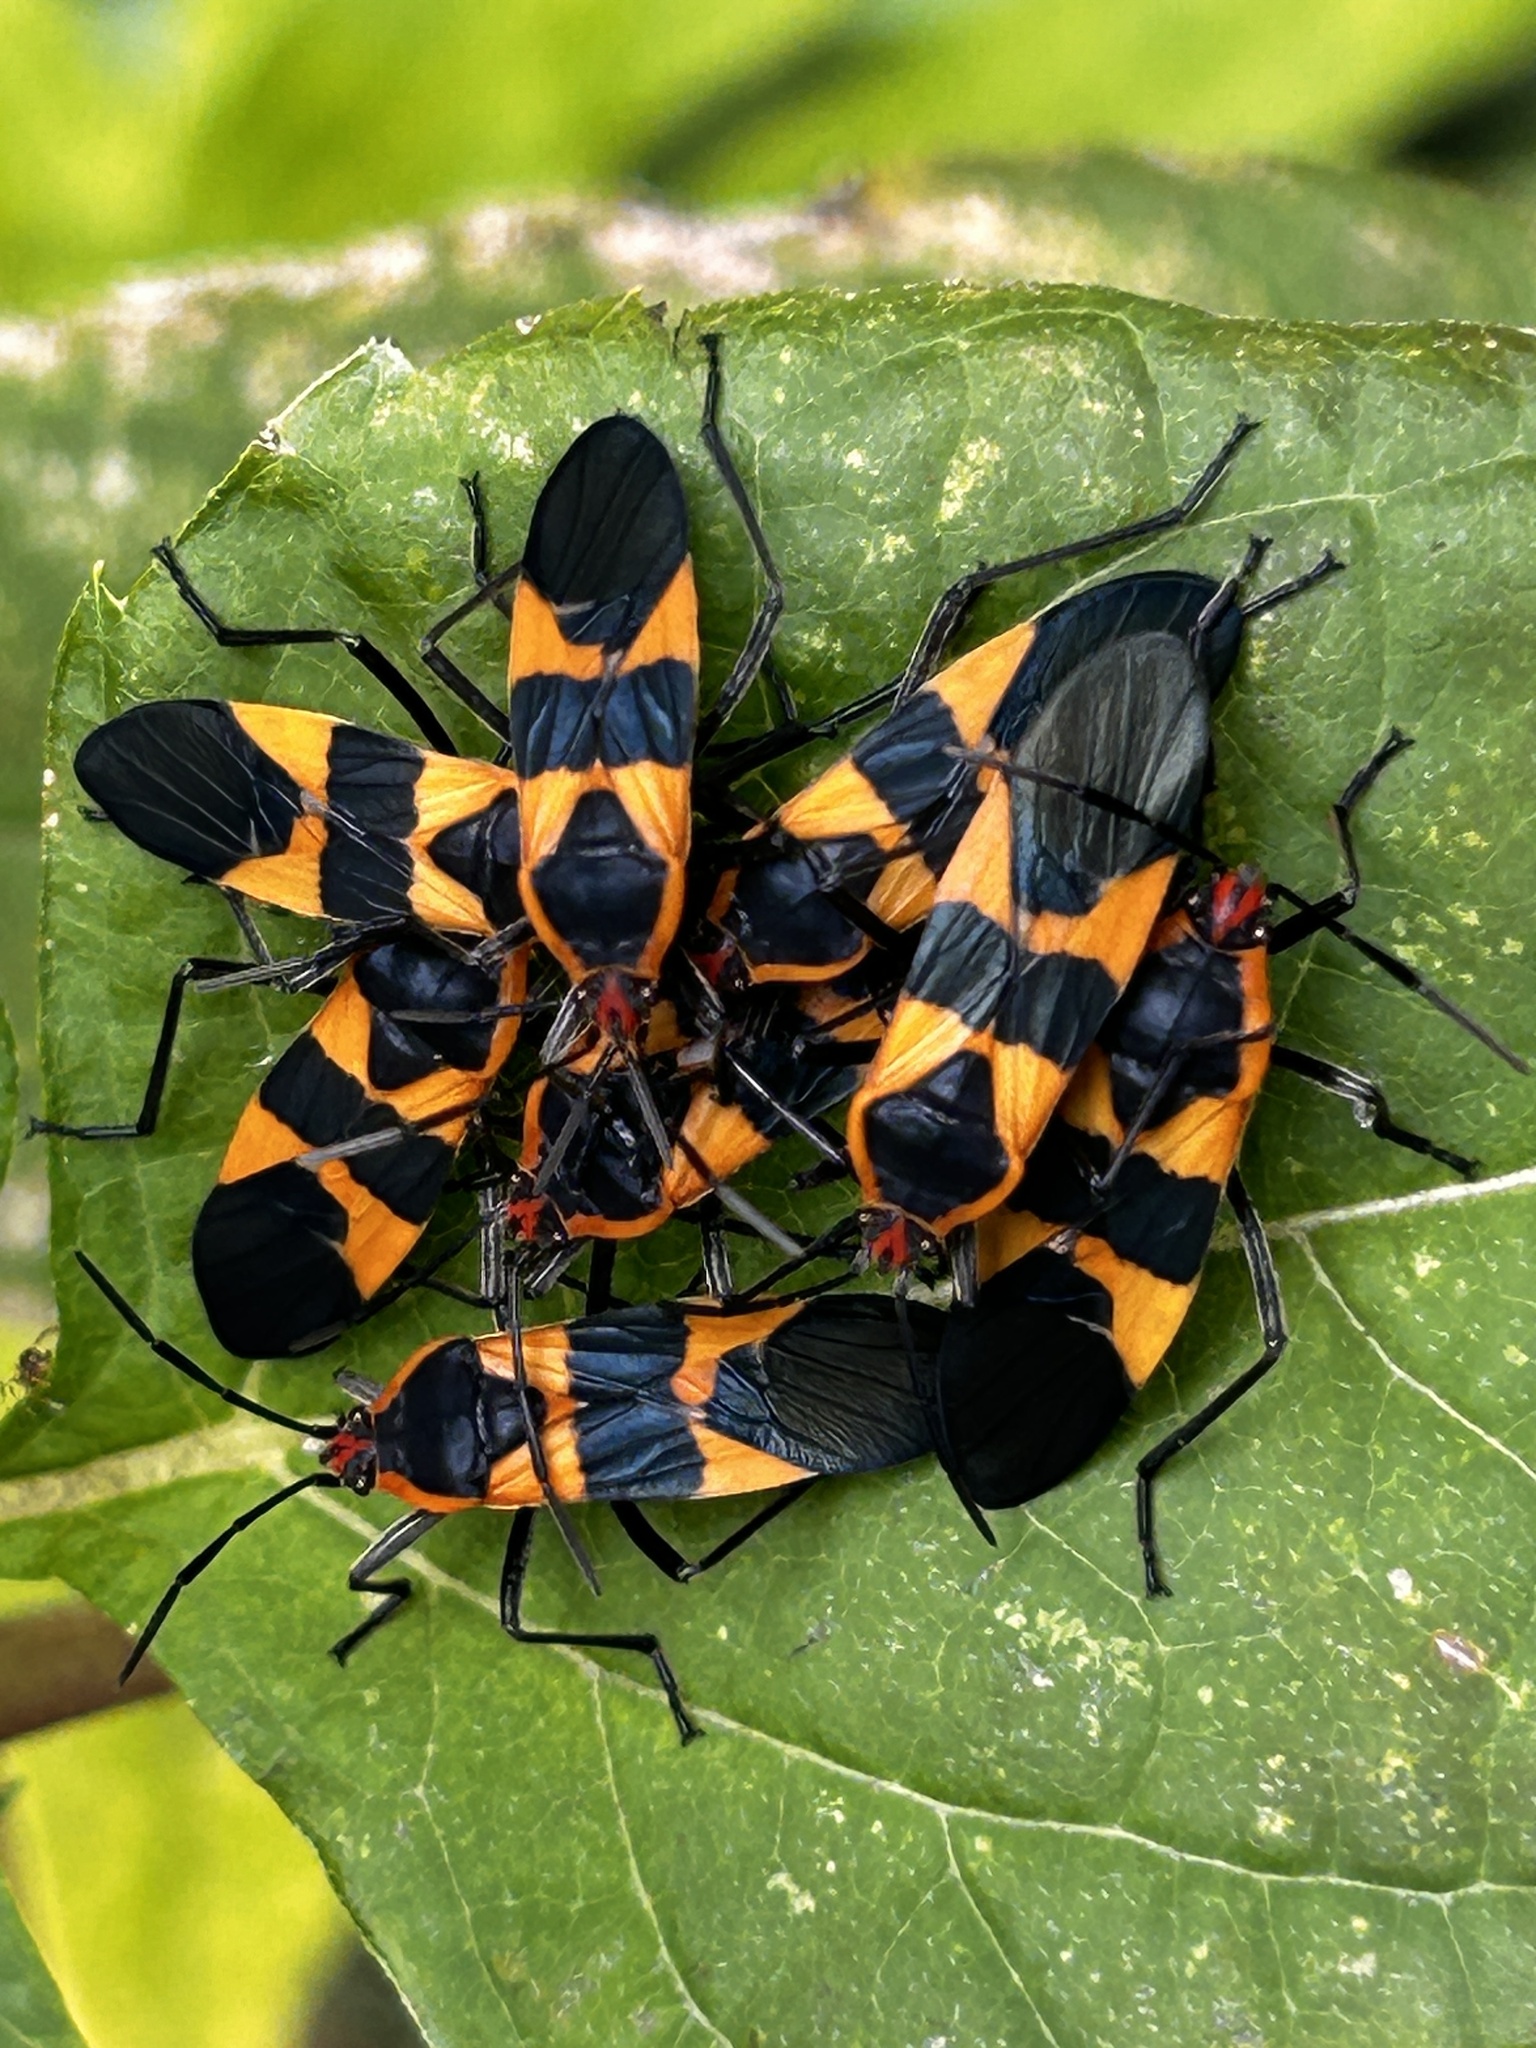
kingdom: Animalia
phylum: Arthropoda
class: Insecta
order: Hemiptera
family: Lygaeidae
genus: Oncopeltus
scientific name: Oncopeltus fasciatus
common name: Large milkweed bug
